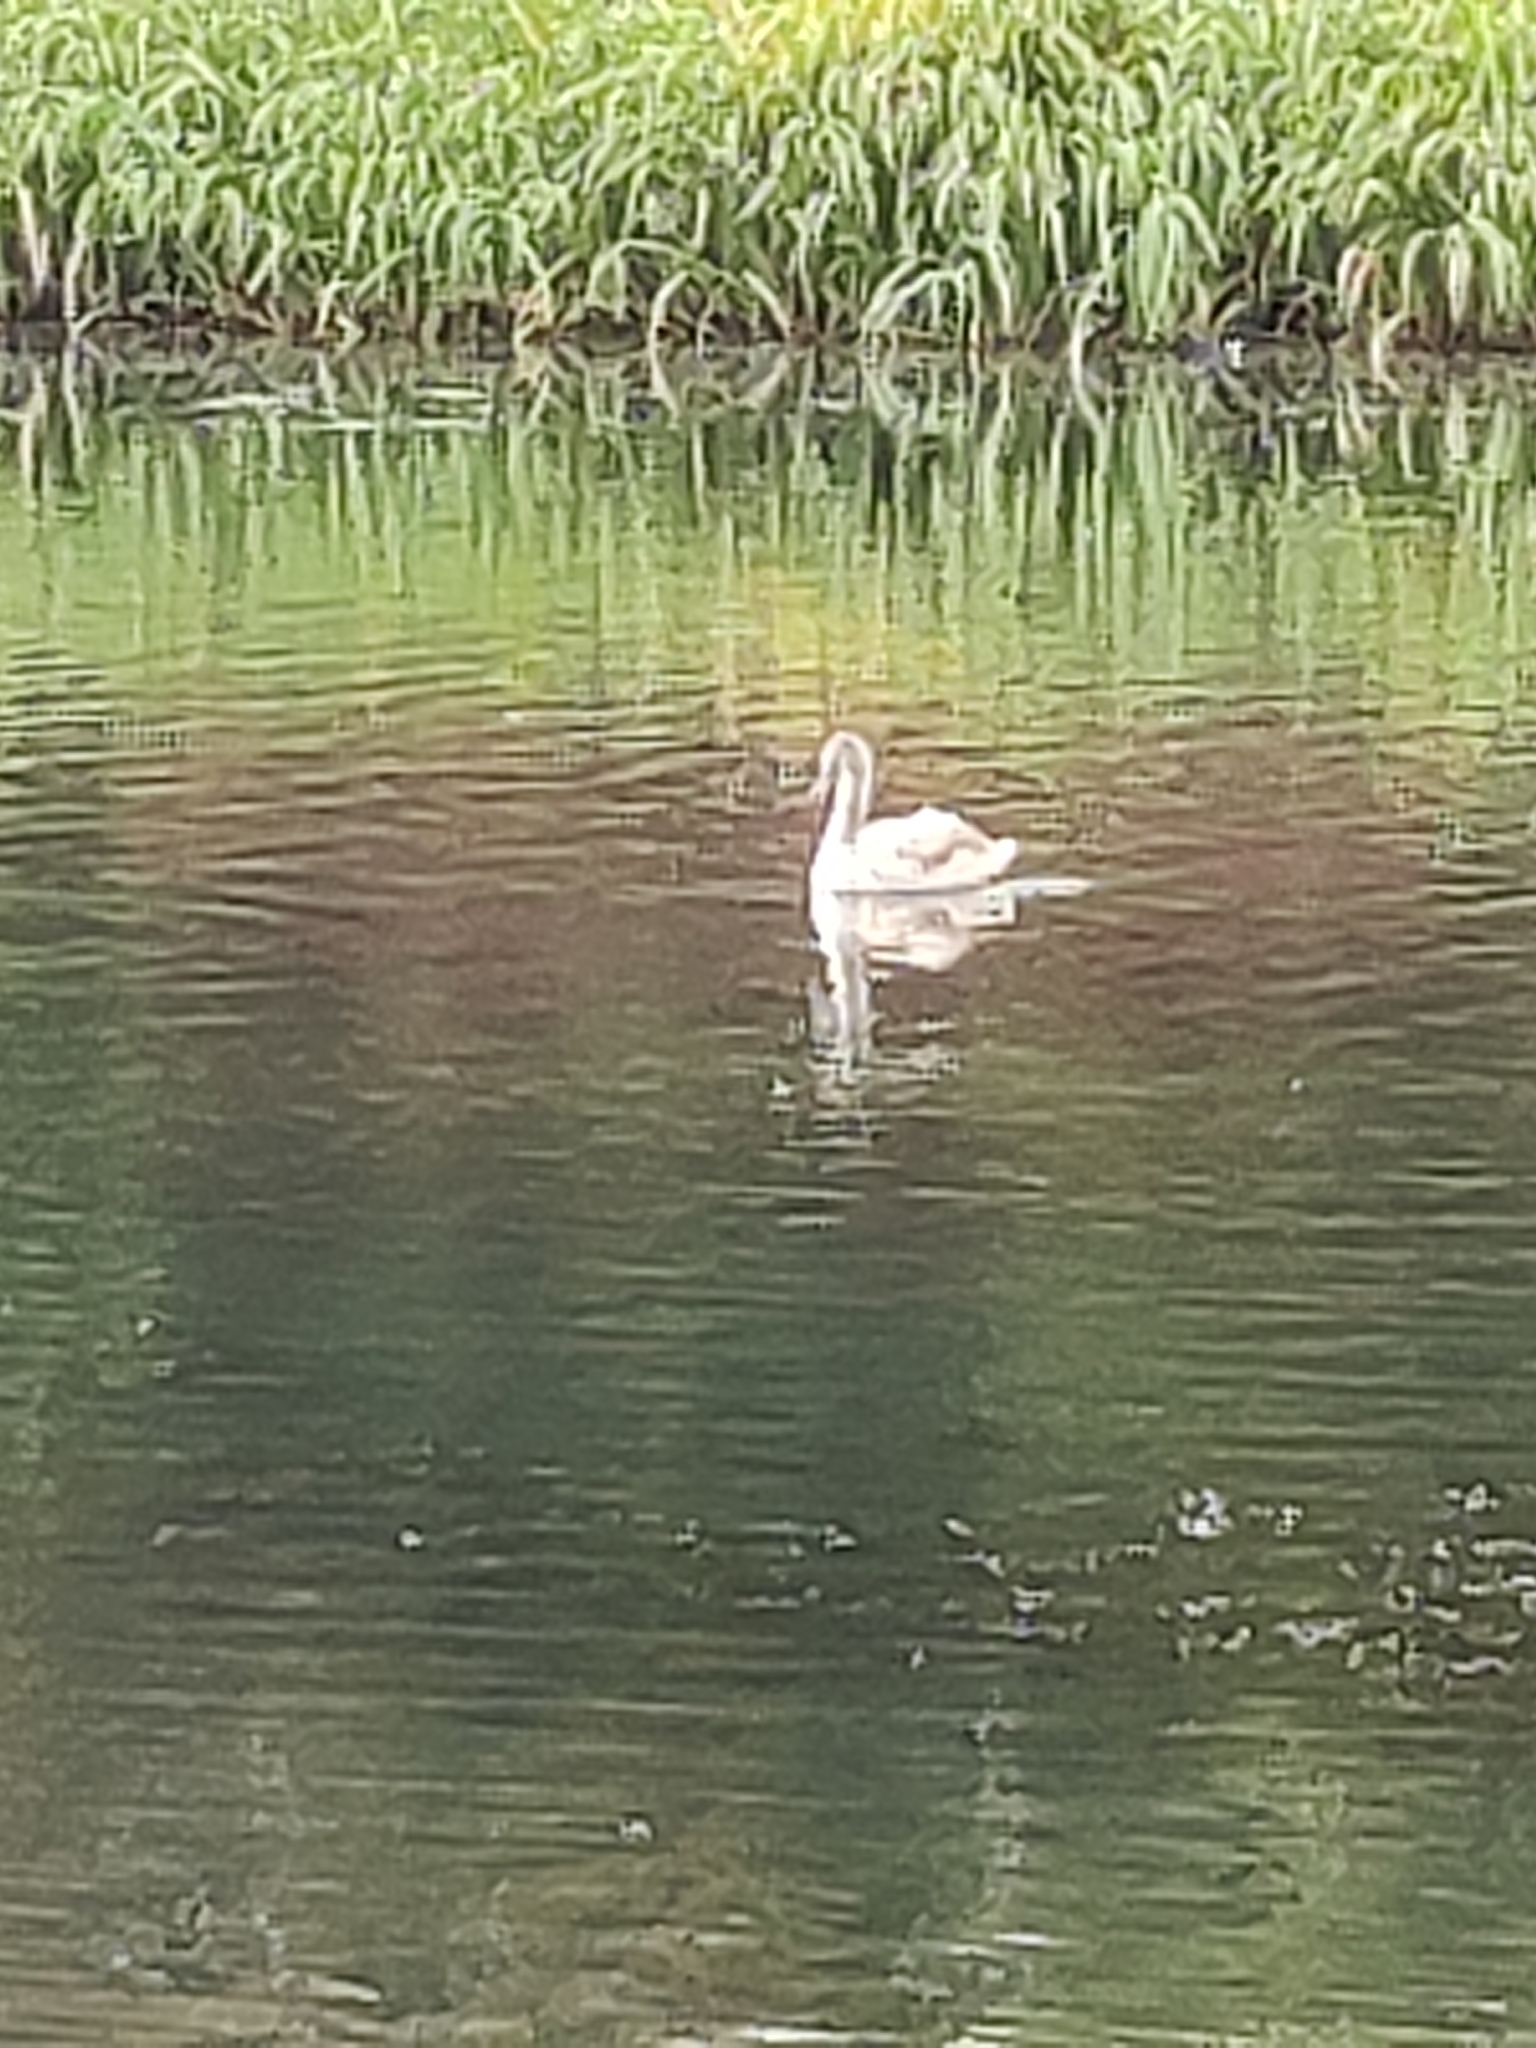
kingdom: Animalia
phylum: Chordata
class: Aves
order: Anseriformes
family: Anatidae
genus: Cygnus
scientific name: Cygnus olor
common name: Mute swan
